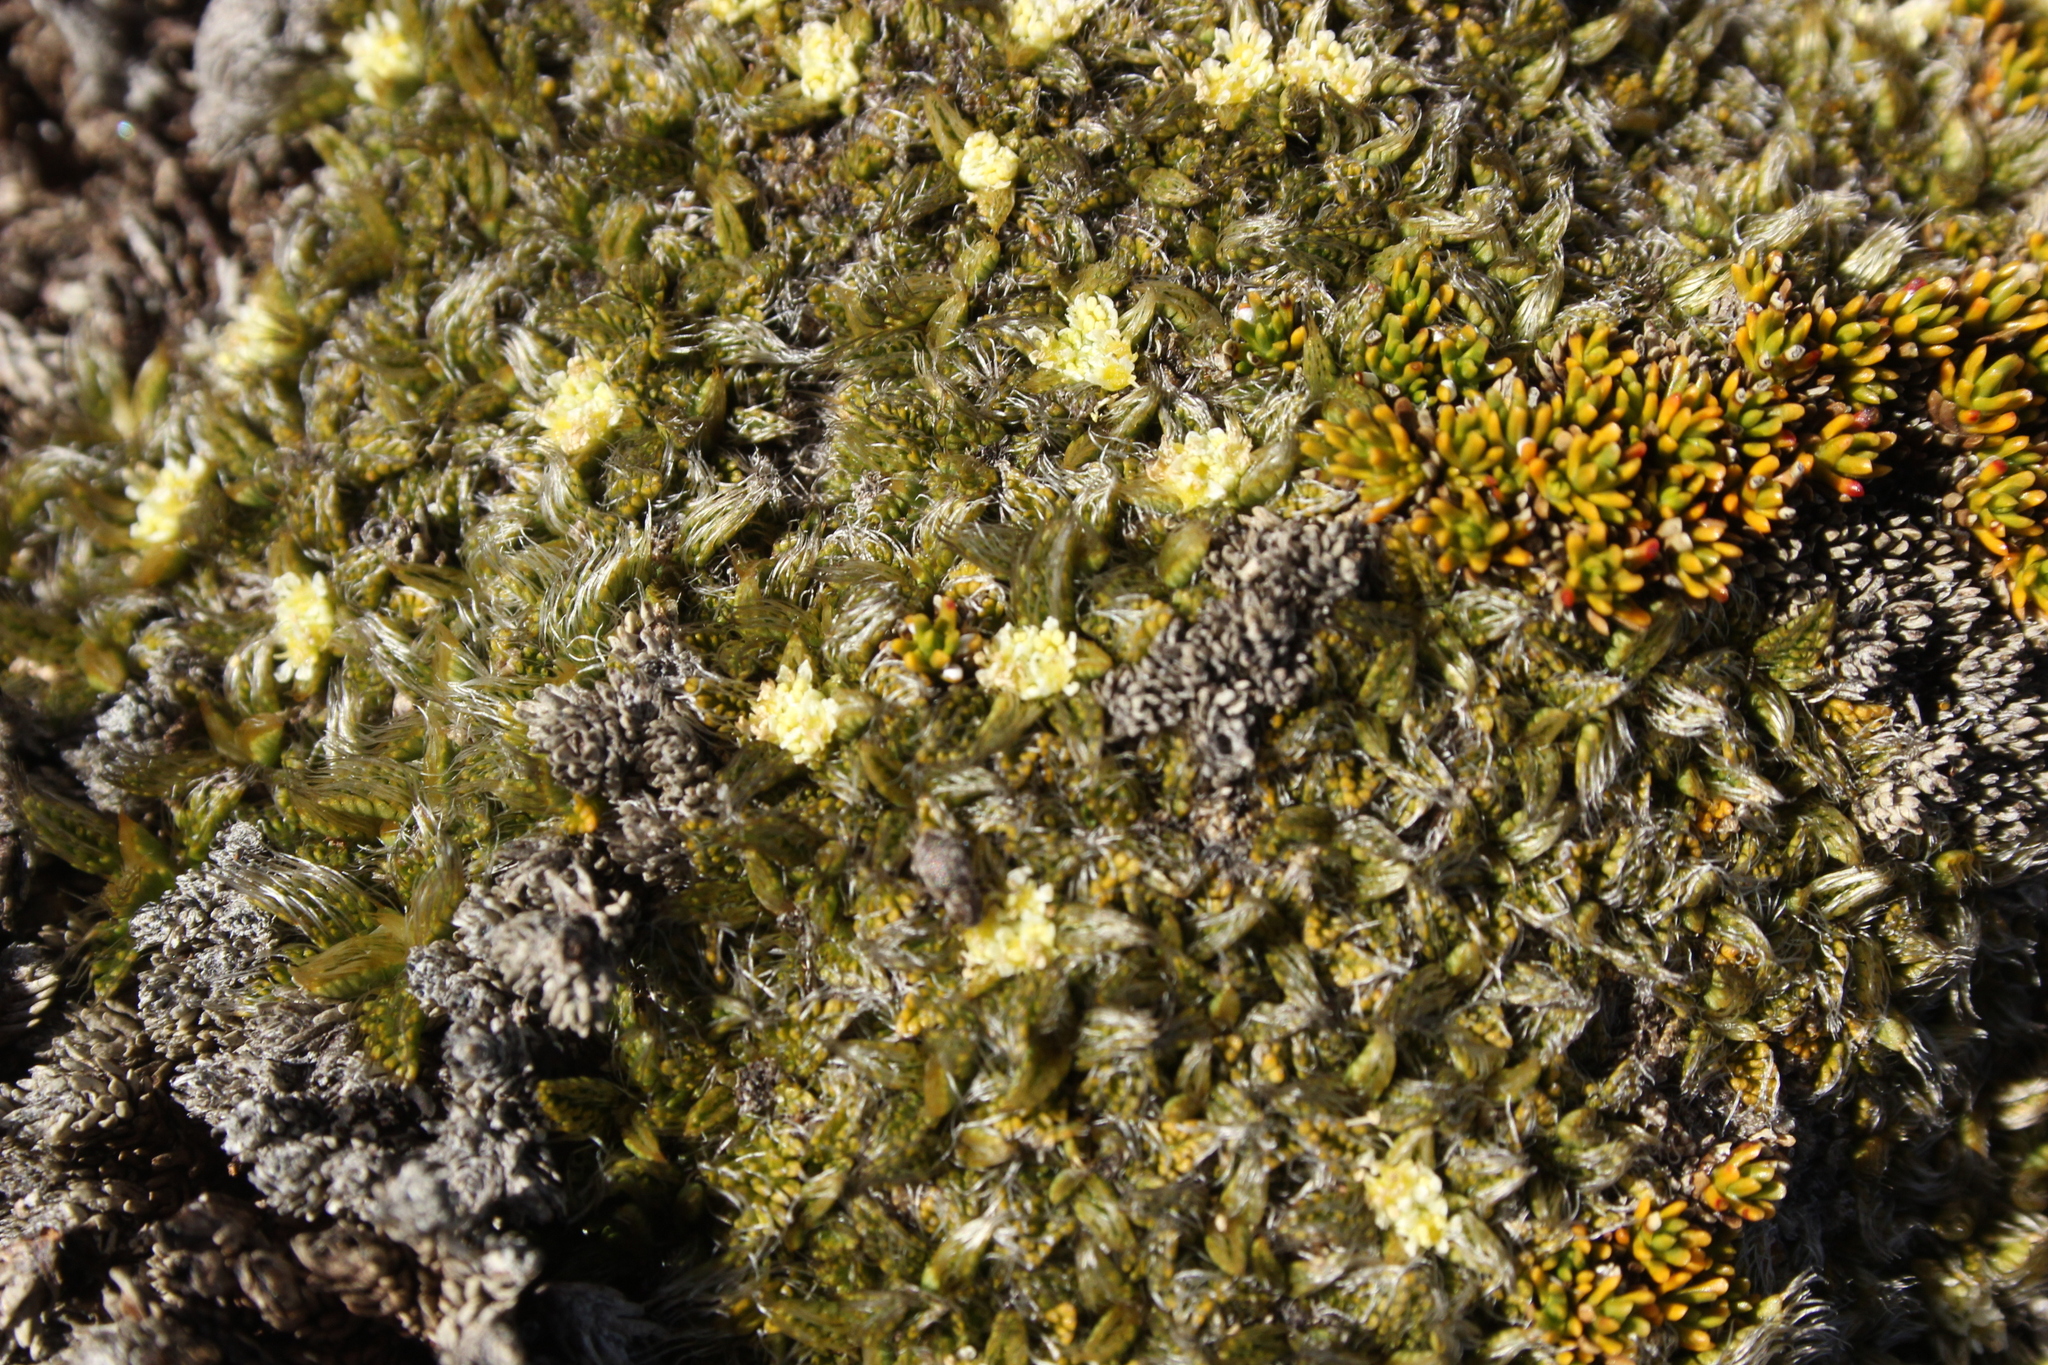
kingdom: Plantae
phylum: Tracheophyta
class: Magnoliopsida
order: Apiales
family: Apiaceae
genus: Anisotome
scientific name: Anisotome imbricata
